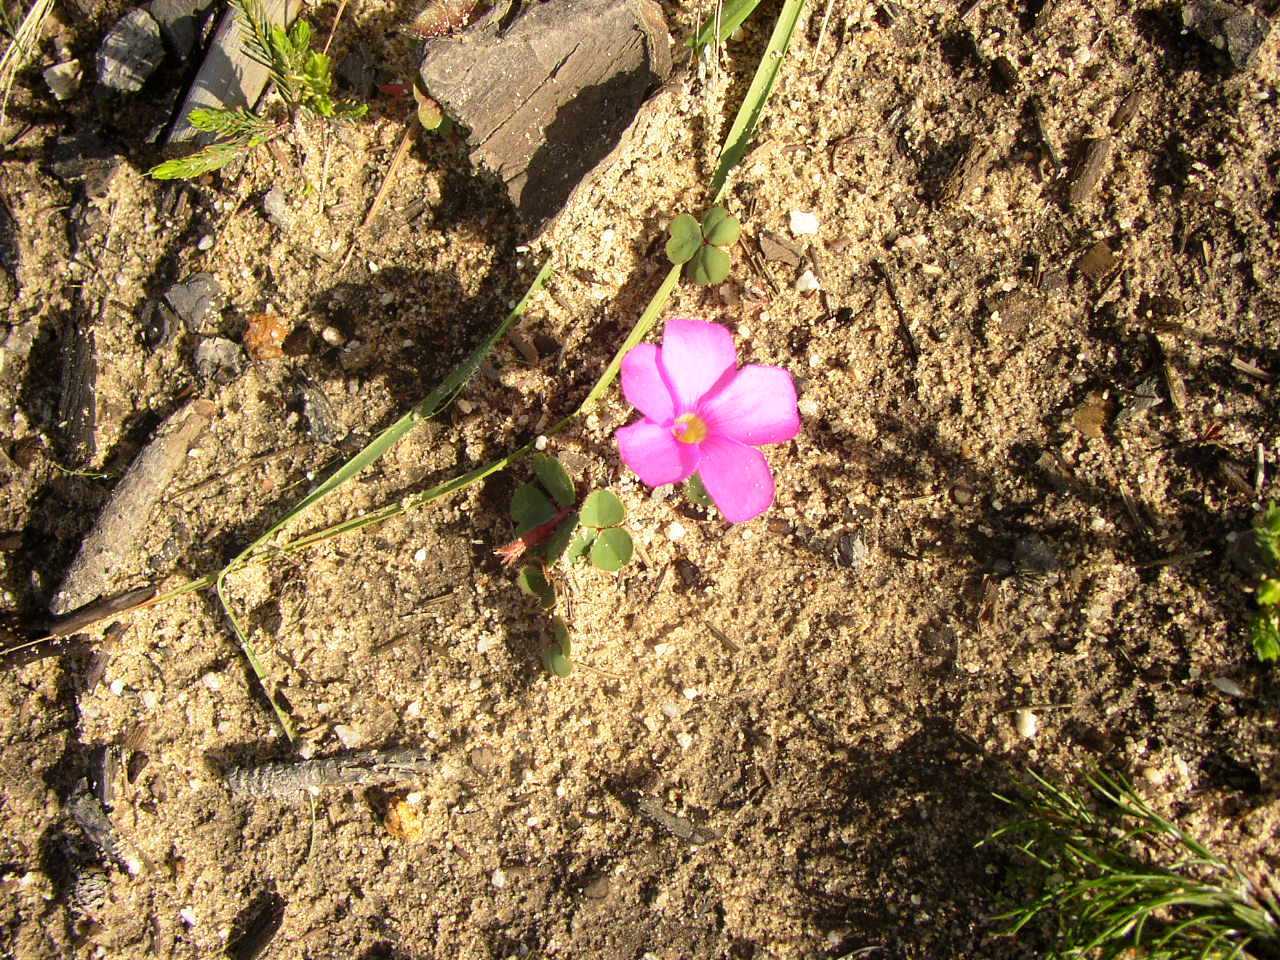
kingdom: Plantae
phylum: Tracheophyta
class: Magnoliopsida
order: Oxalidales
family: Oxalidaceae
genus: Oxalis
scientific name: Oxalis eckloniana
